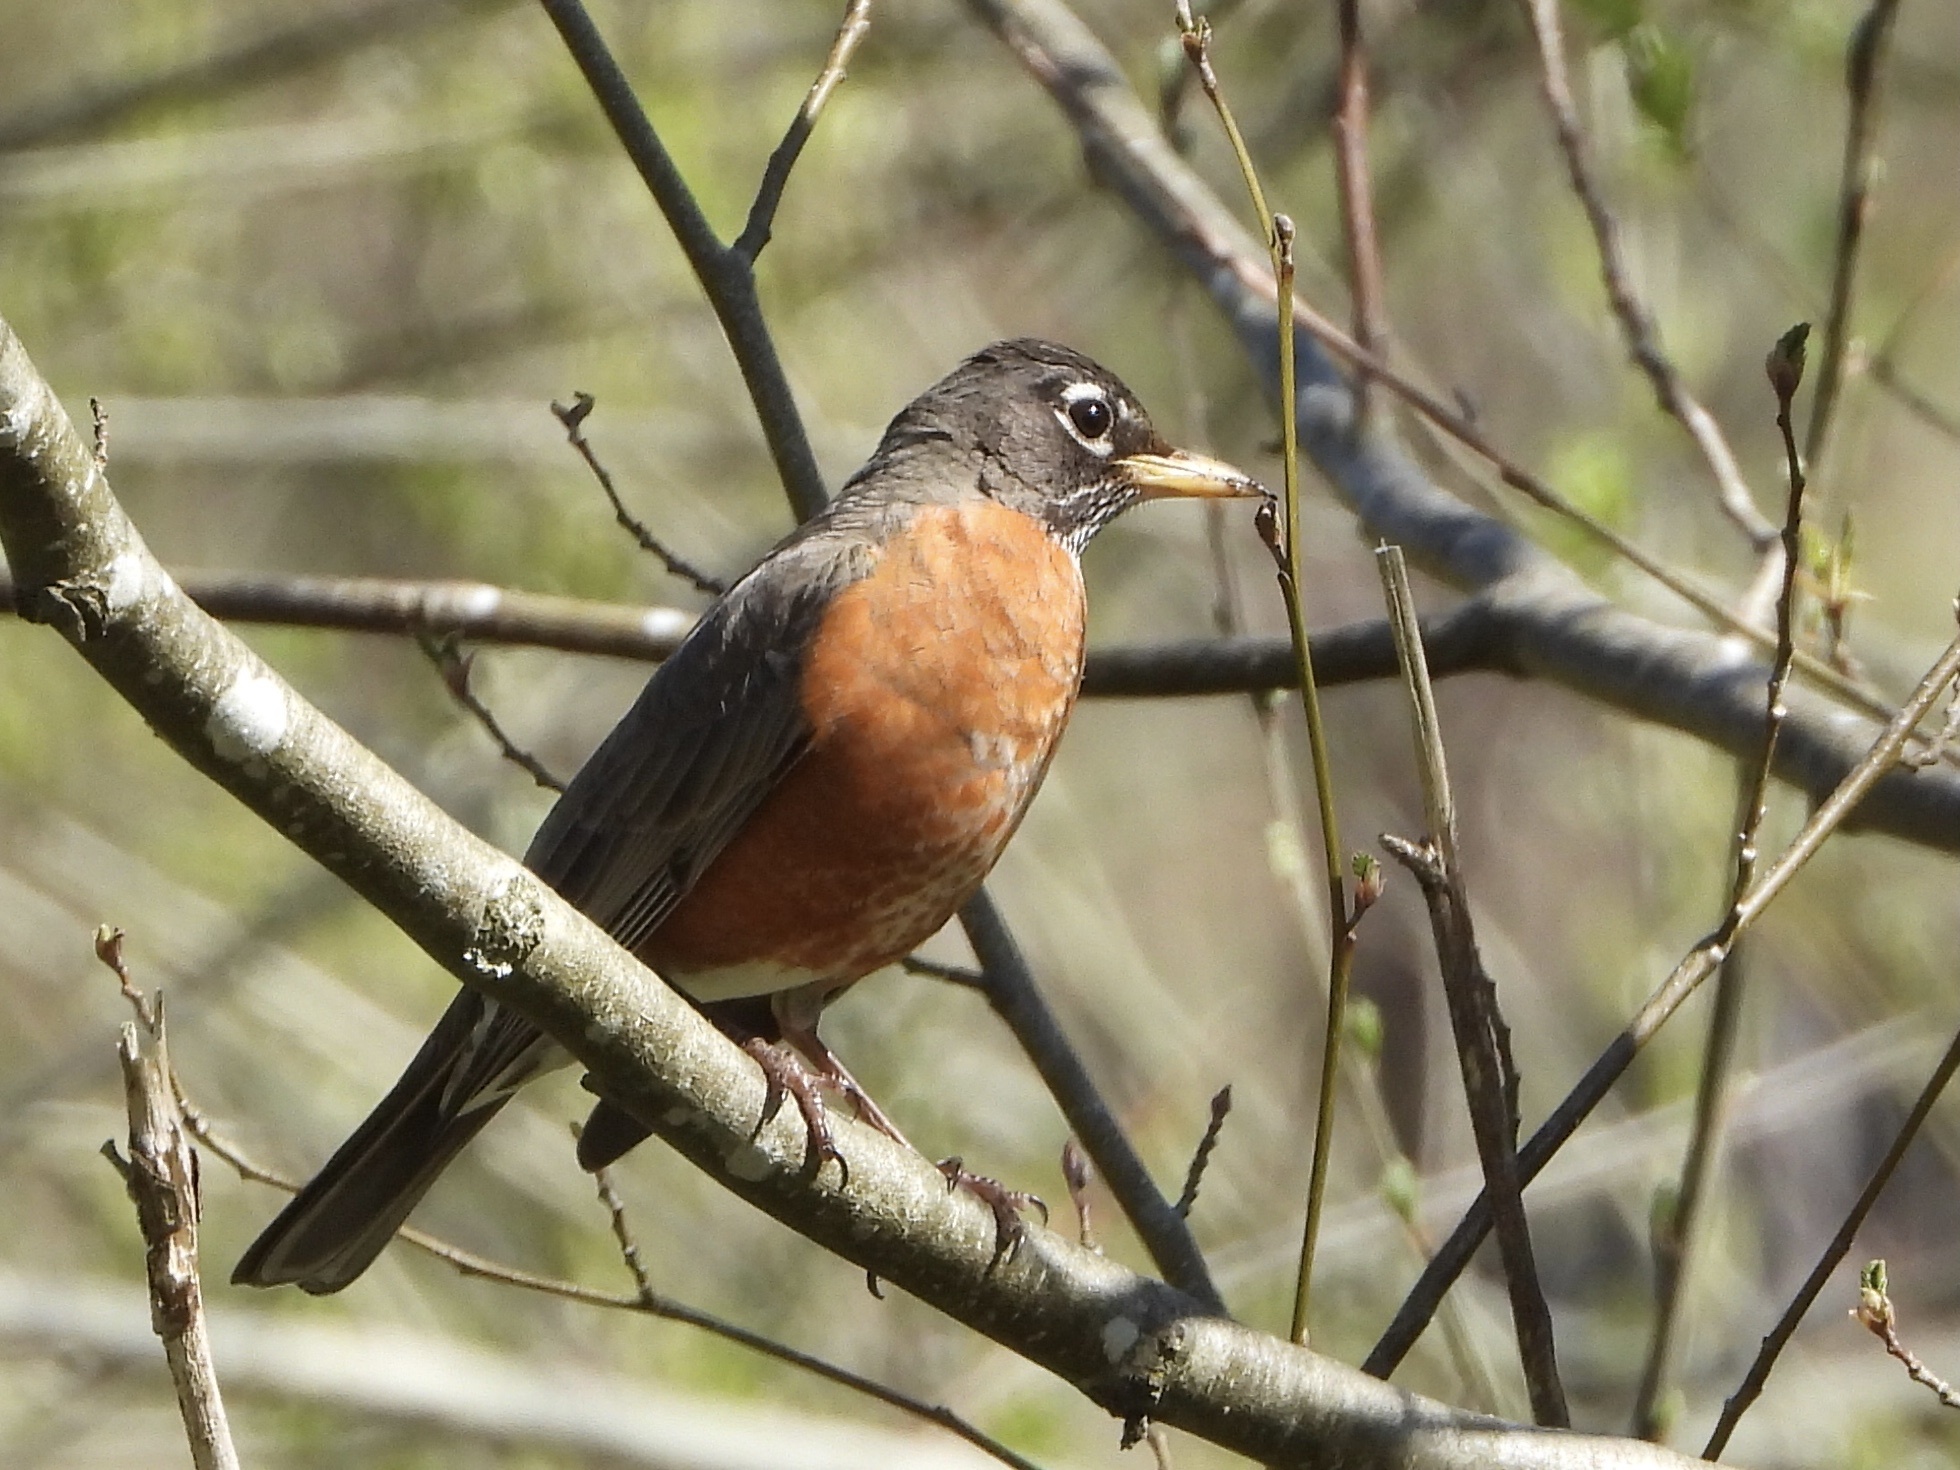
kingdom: Animalia
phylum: Chordata
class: Aves
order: Passeriformes
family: Turdidae
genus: Turdus
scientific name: Turdus migratorius
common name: American robin
